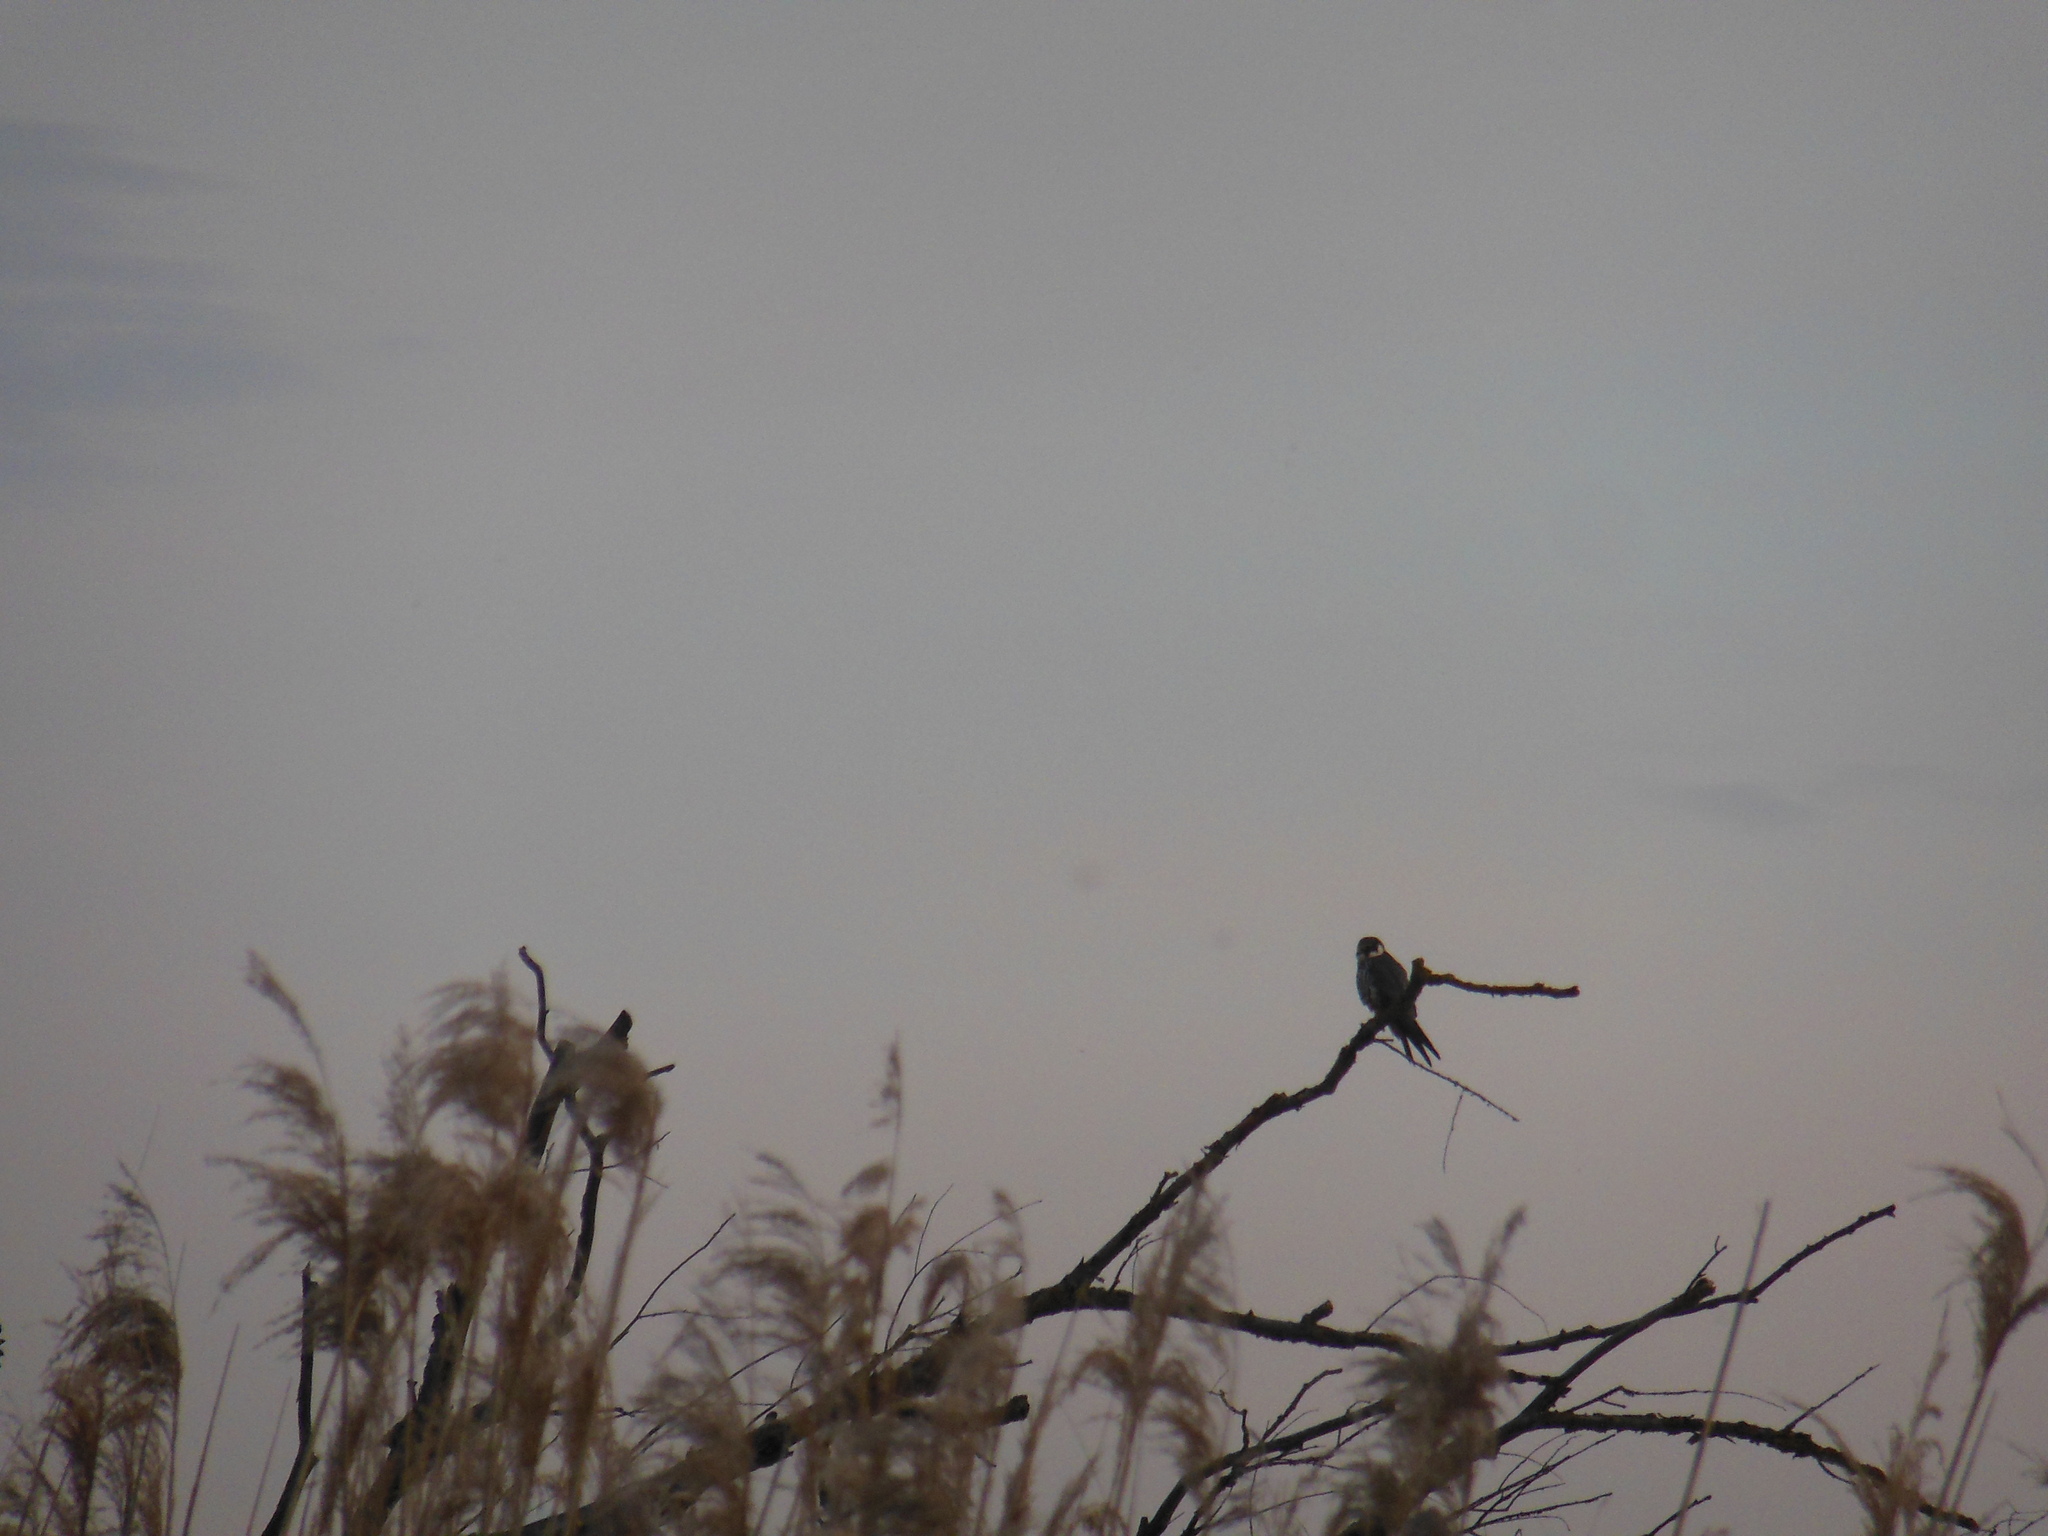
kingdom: Animalia
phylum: Chordata
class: Aves
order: Falconiformes
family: Falconidae
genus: Falco
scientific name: Falco subbuteo
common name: Eurasian hobby
